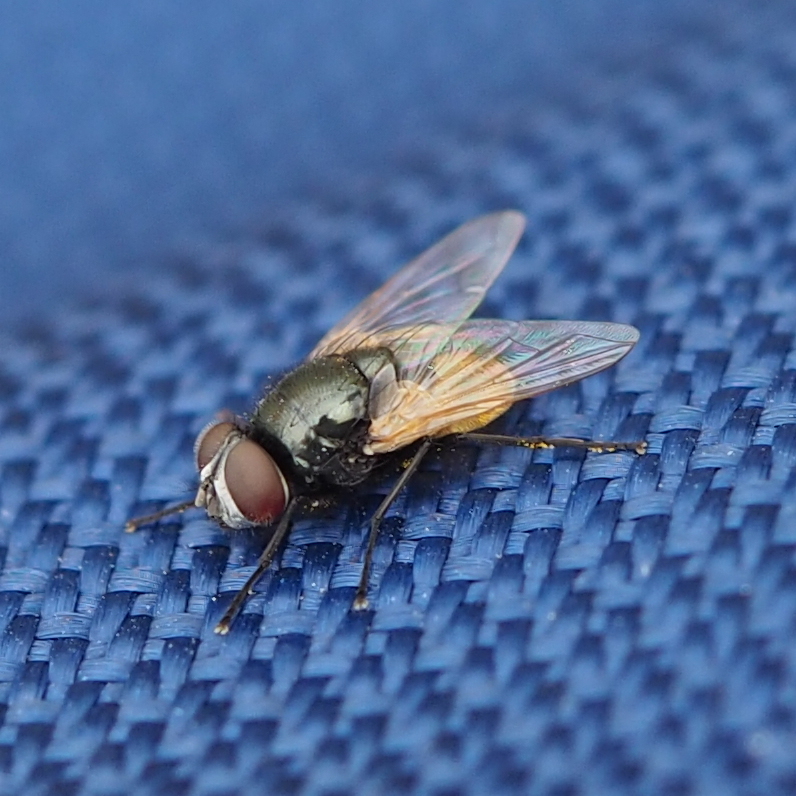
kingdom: Animalia
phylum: Arthropoda
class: Insecta
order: Diptera
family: Muscidae
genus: Musca
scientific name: Musca osiris
